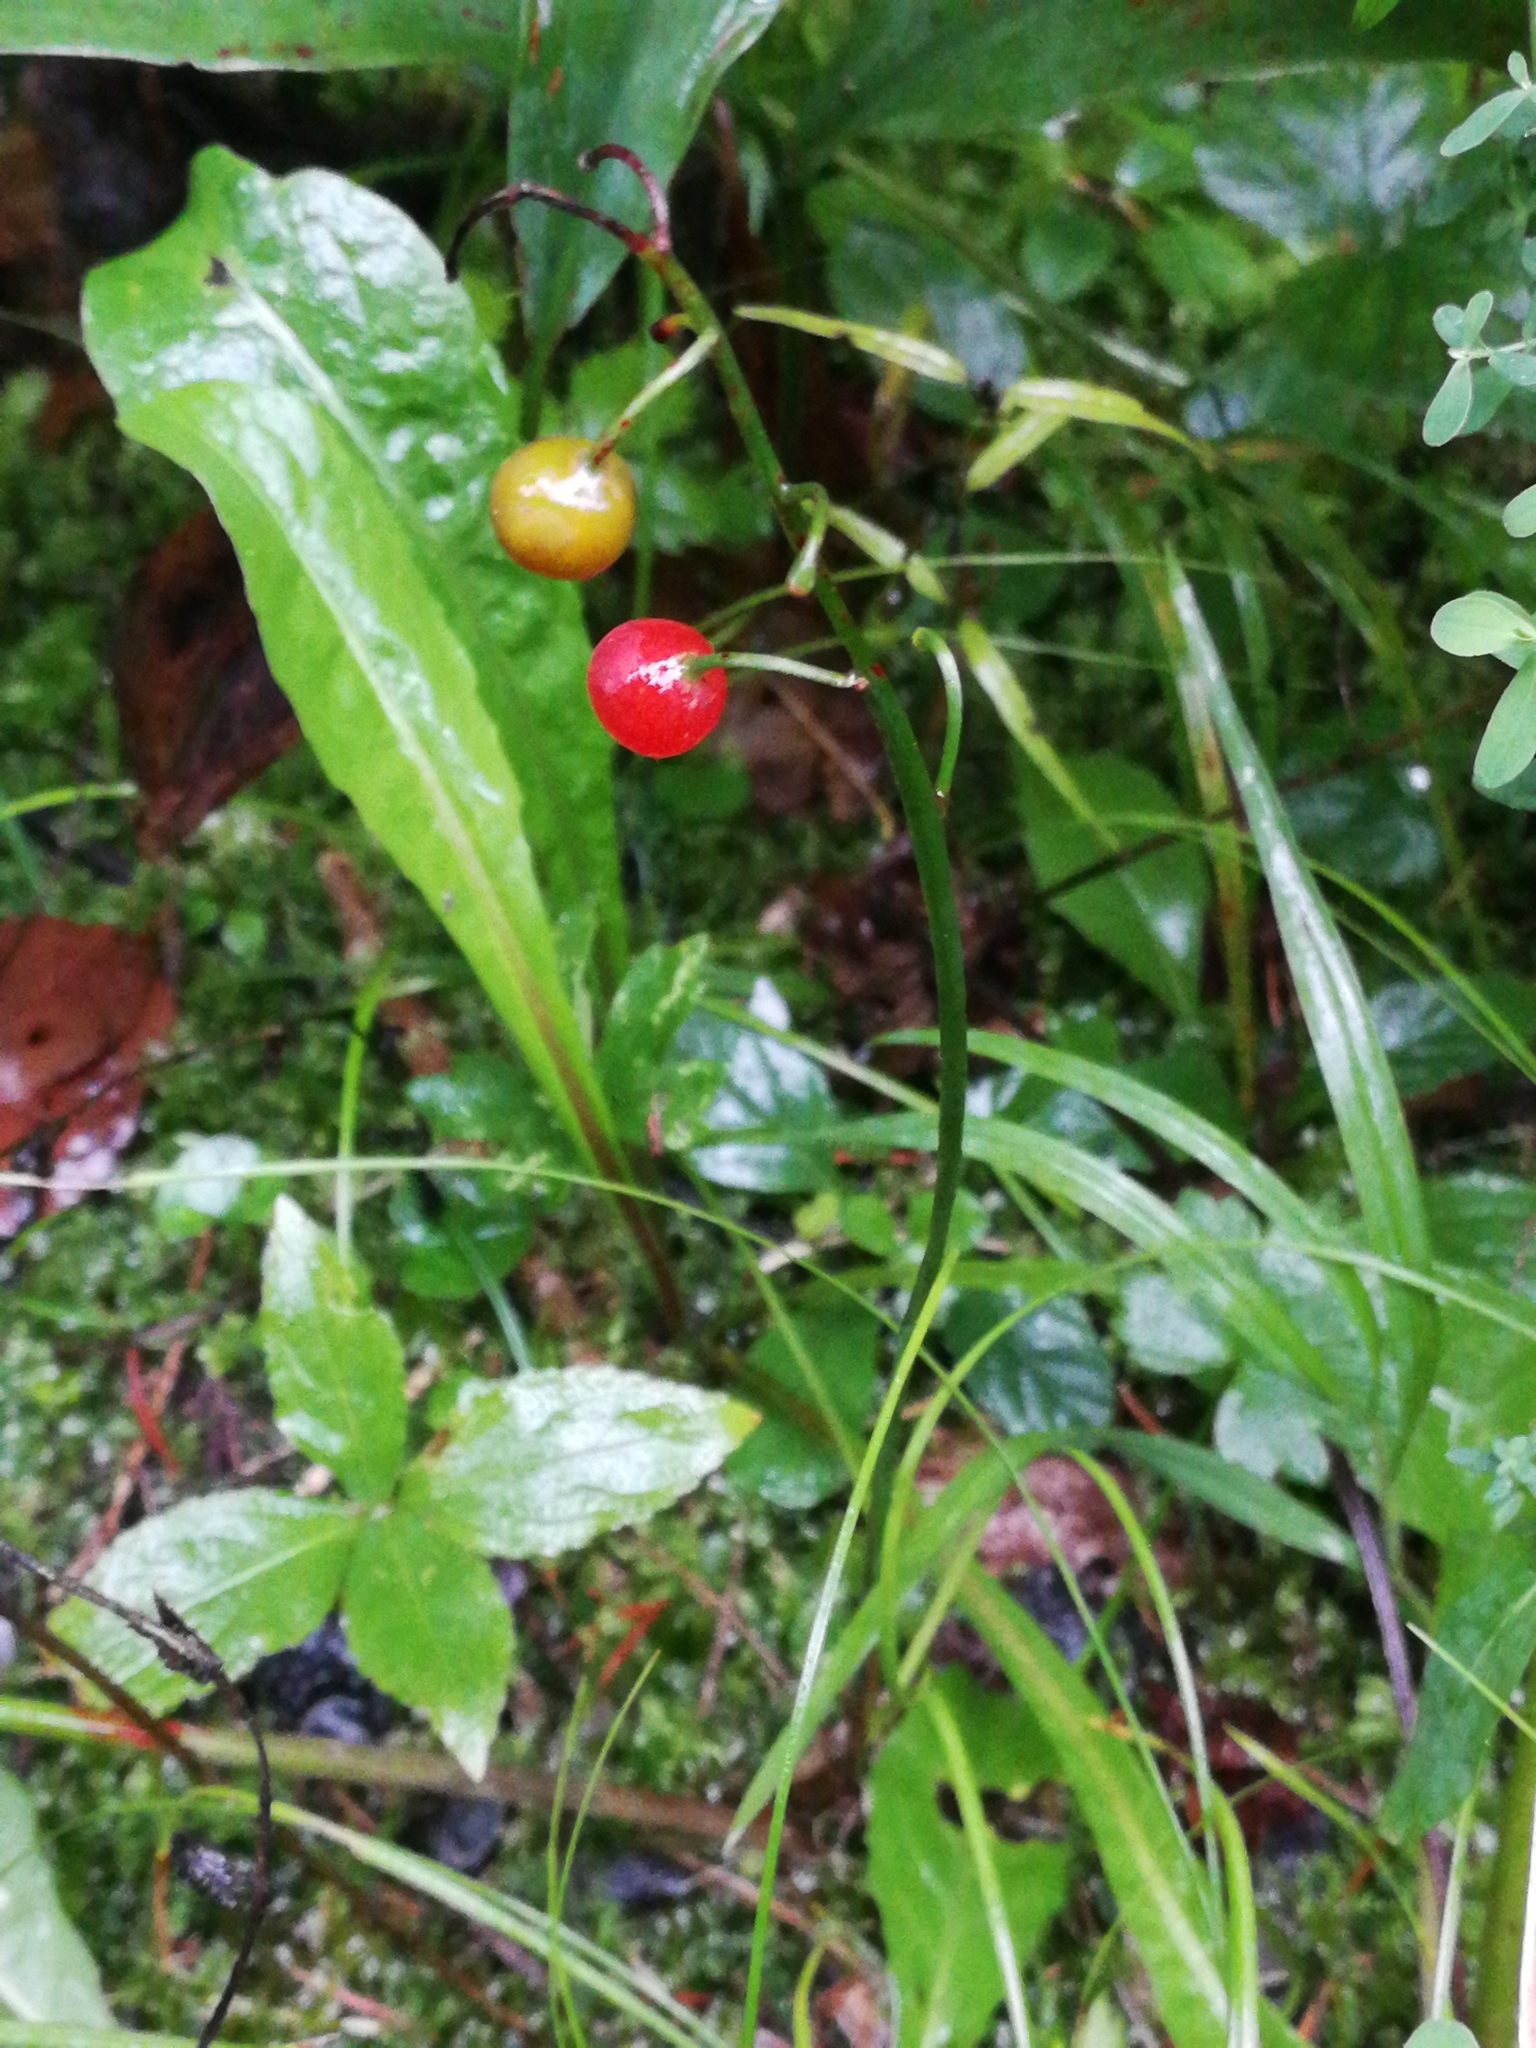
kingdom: Plantae
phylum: Tracheophyta
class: Liliopsida
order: Asparagales
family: Asparagaceae
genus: Convallaria
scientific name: Convallaria majalis
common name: Lily-of-the-valley
